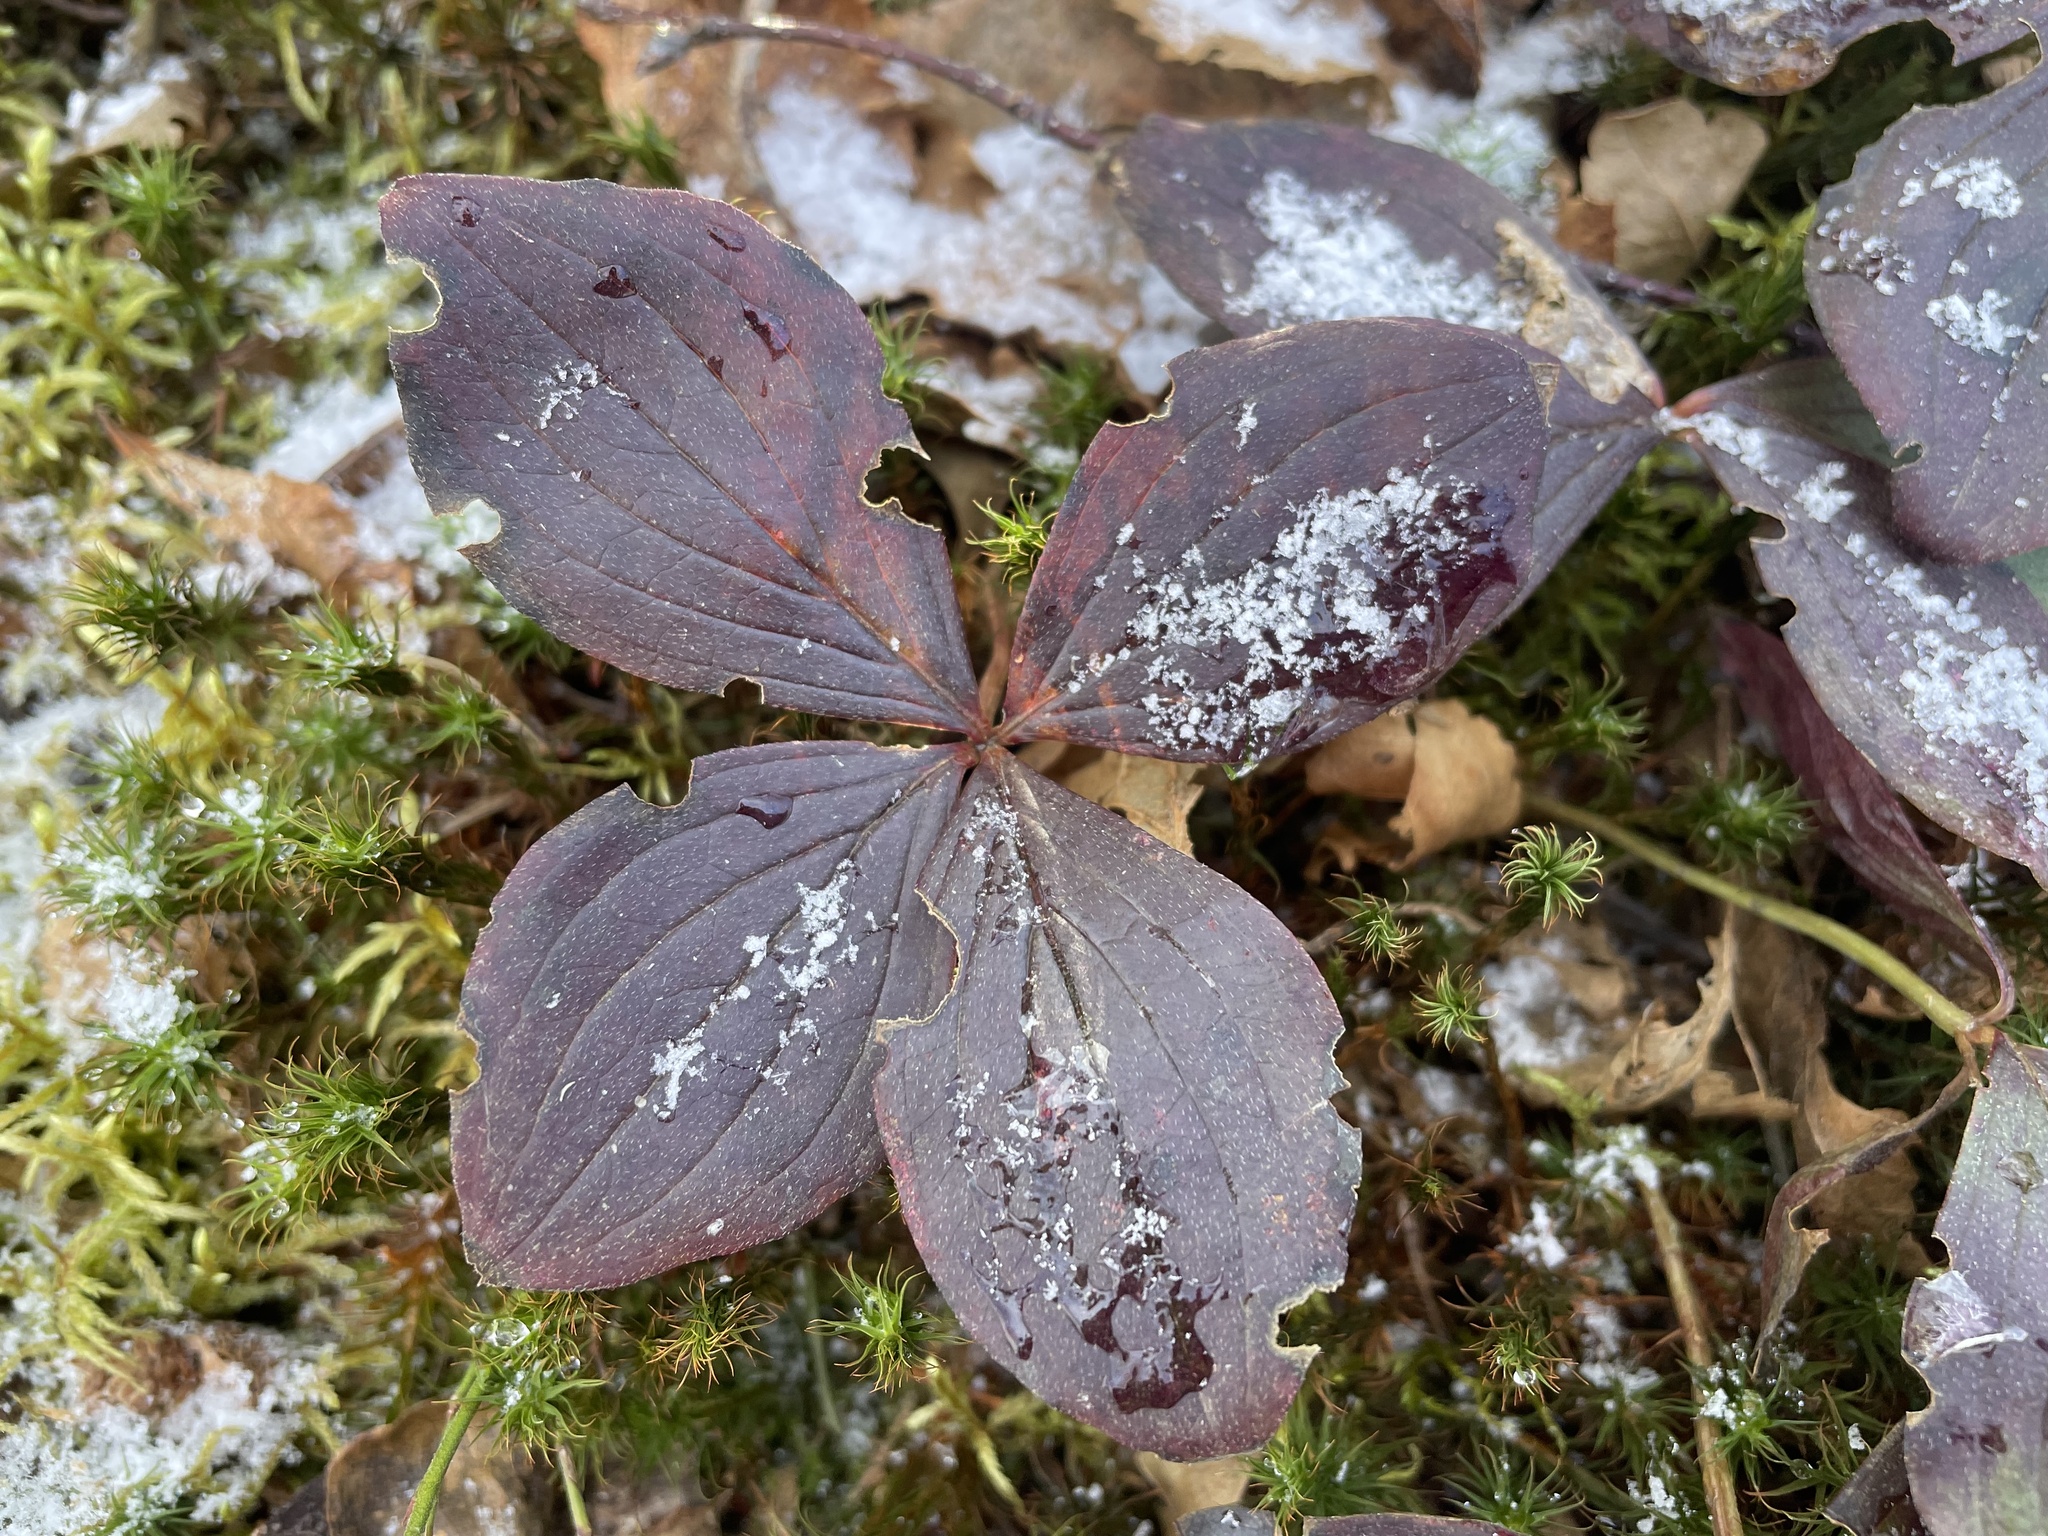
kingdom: Plantae
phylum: Tracheophyta
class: Magnoliopsida
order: Cornales
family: Cornaceae
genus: Cornus
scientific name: Cornus canadensis
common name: Creeping dogwood
